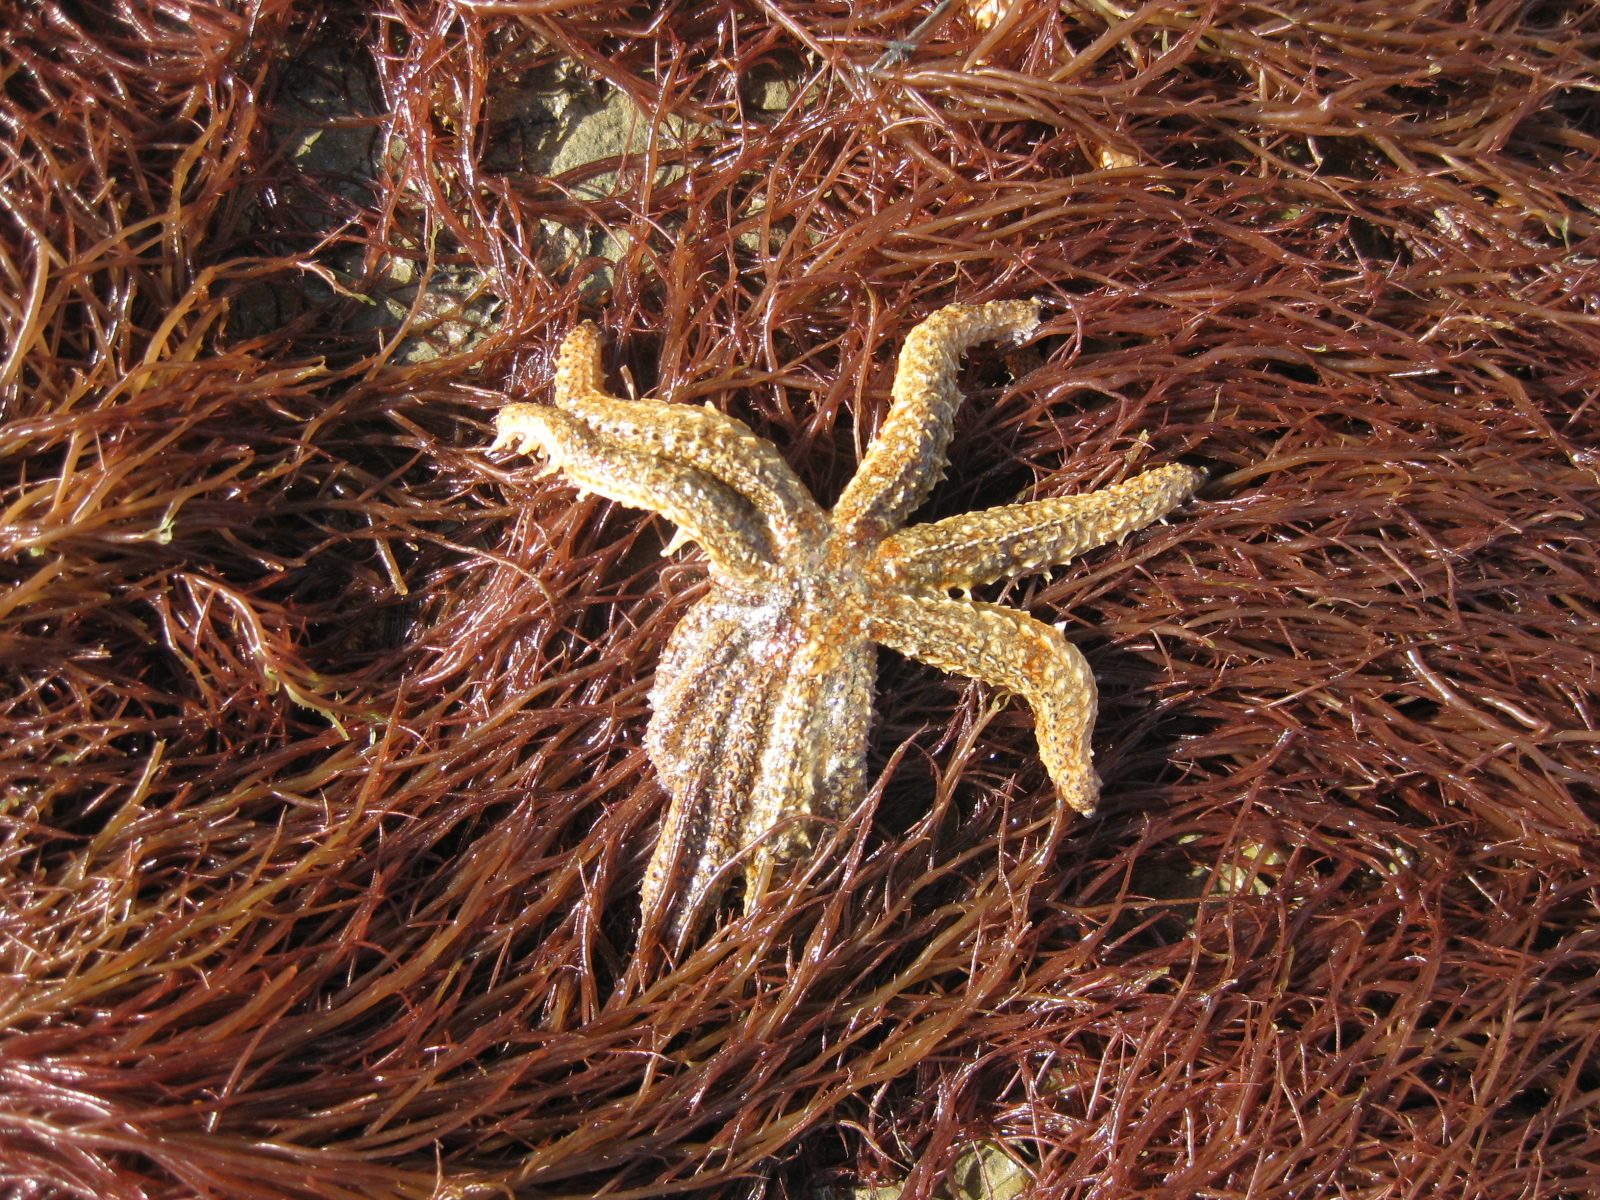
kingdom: Animalia
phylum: Echinodermata
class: Asteroidea
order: Forcipulatida
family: Asteriidae
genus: Coscinasterias
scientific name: Coscinasterias muricata
